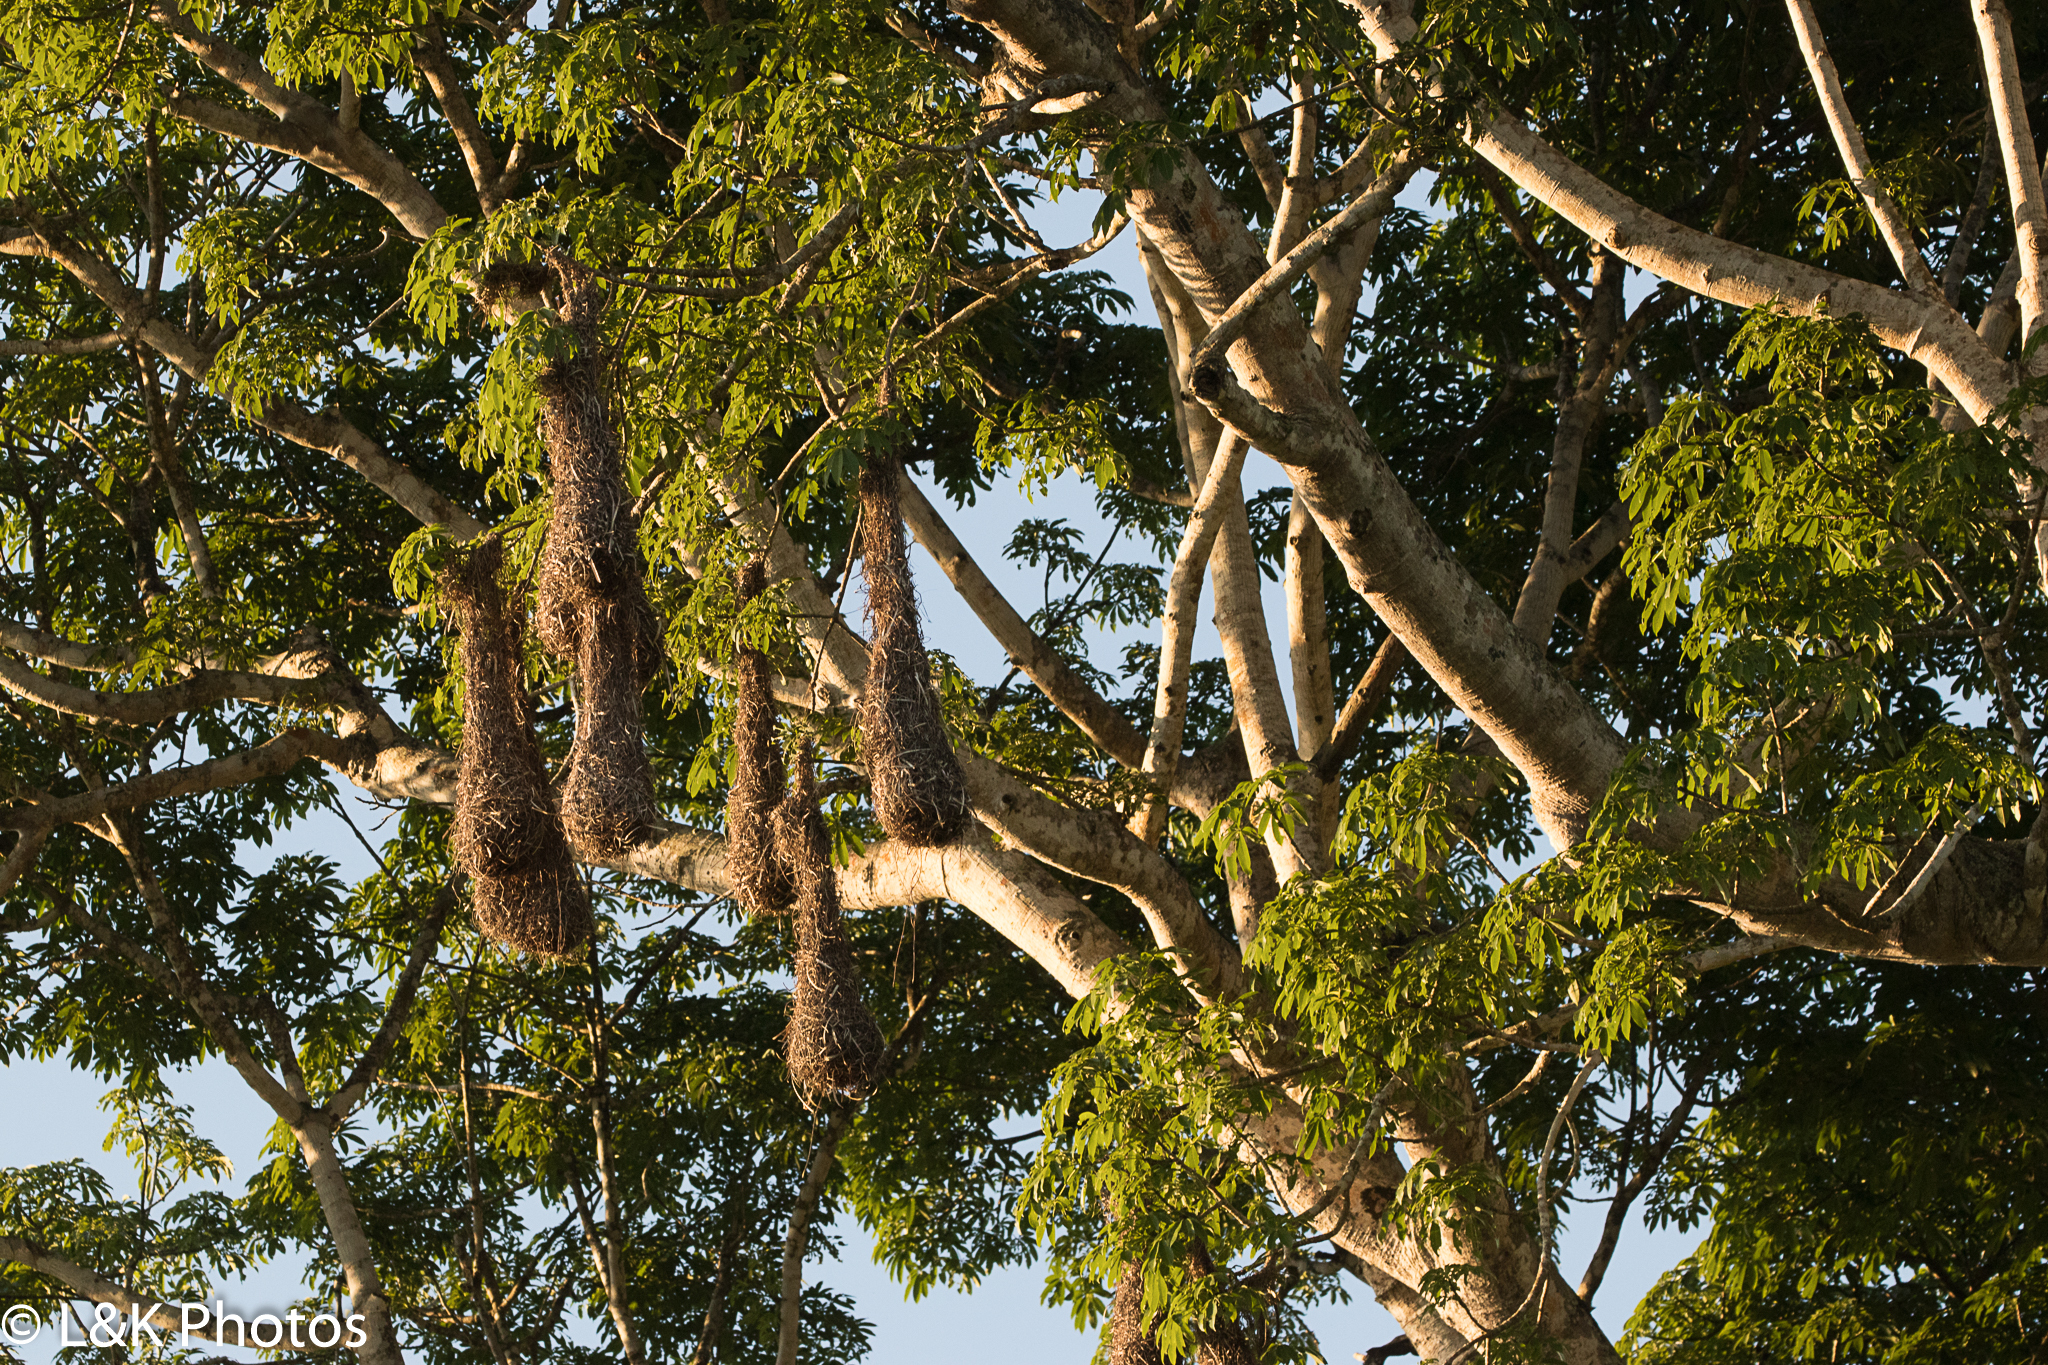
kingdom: Animalia
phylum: Chordata
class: Aves
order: Passeriformes
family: Icteridae
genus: Psarocolius
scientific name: Psarocolius montezuma
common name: Montezuma oropendola
